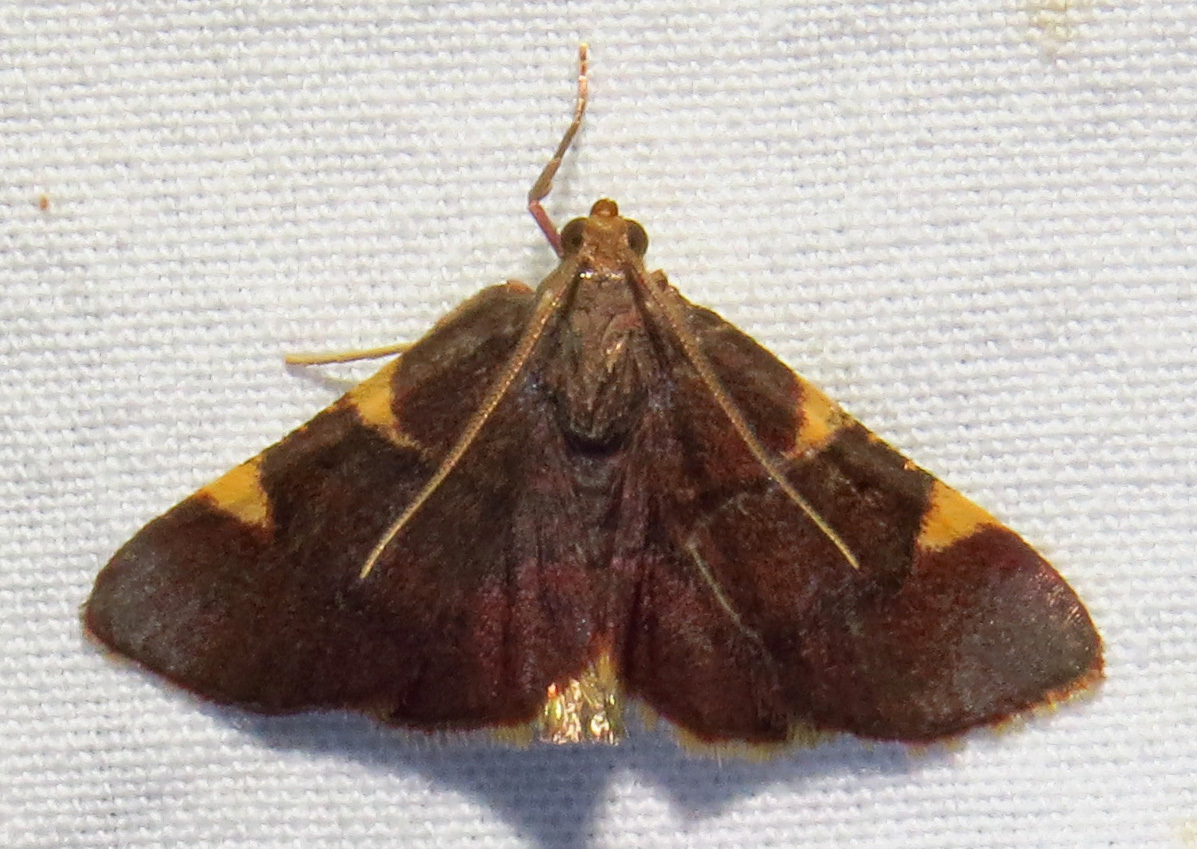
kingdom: Animalia
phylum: Arthropoda
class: Insecta
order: Lepidoptera
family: Pyralidae
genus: Hypsopygia
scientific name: Hypsopygia olinalis
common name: Yellow-fringed dolichomia moth
